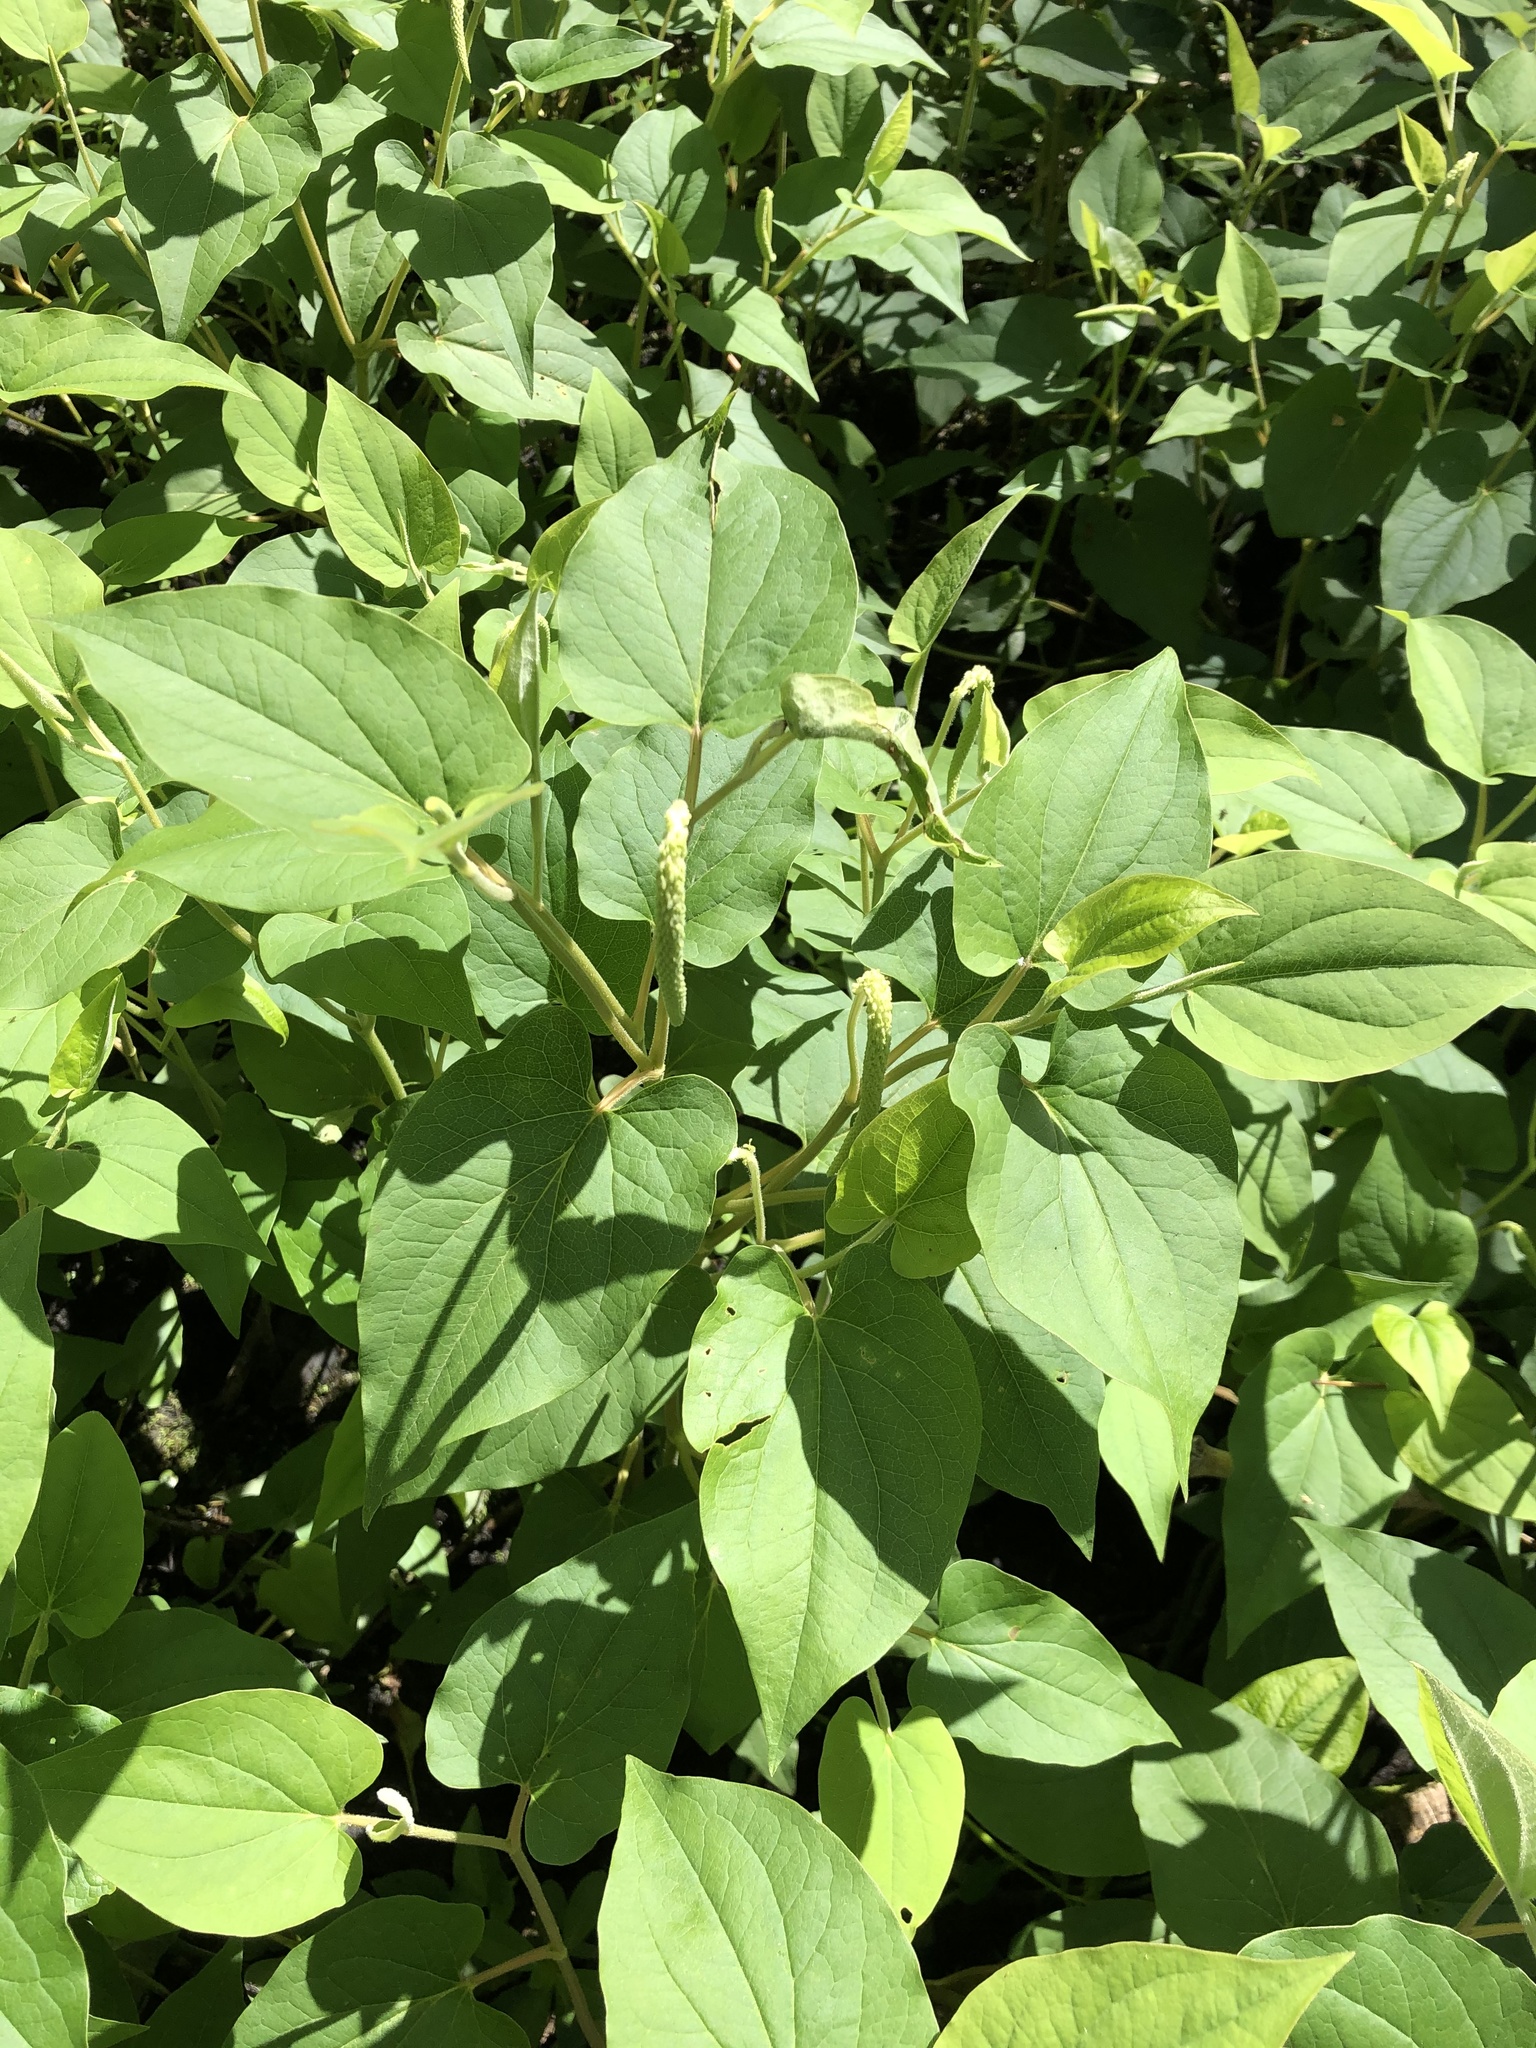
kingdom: Plantae
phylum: Tracheophyta
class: Magnoliopsida
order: Piperales
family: Saururaceae
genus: Saururus
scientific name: Saururus cernuus
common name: Lizard's-tail
